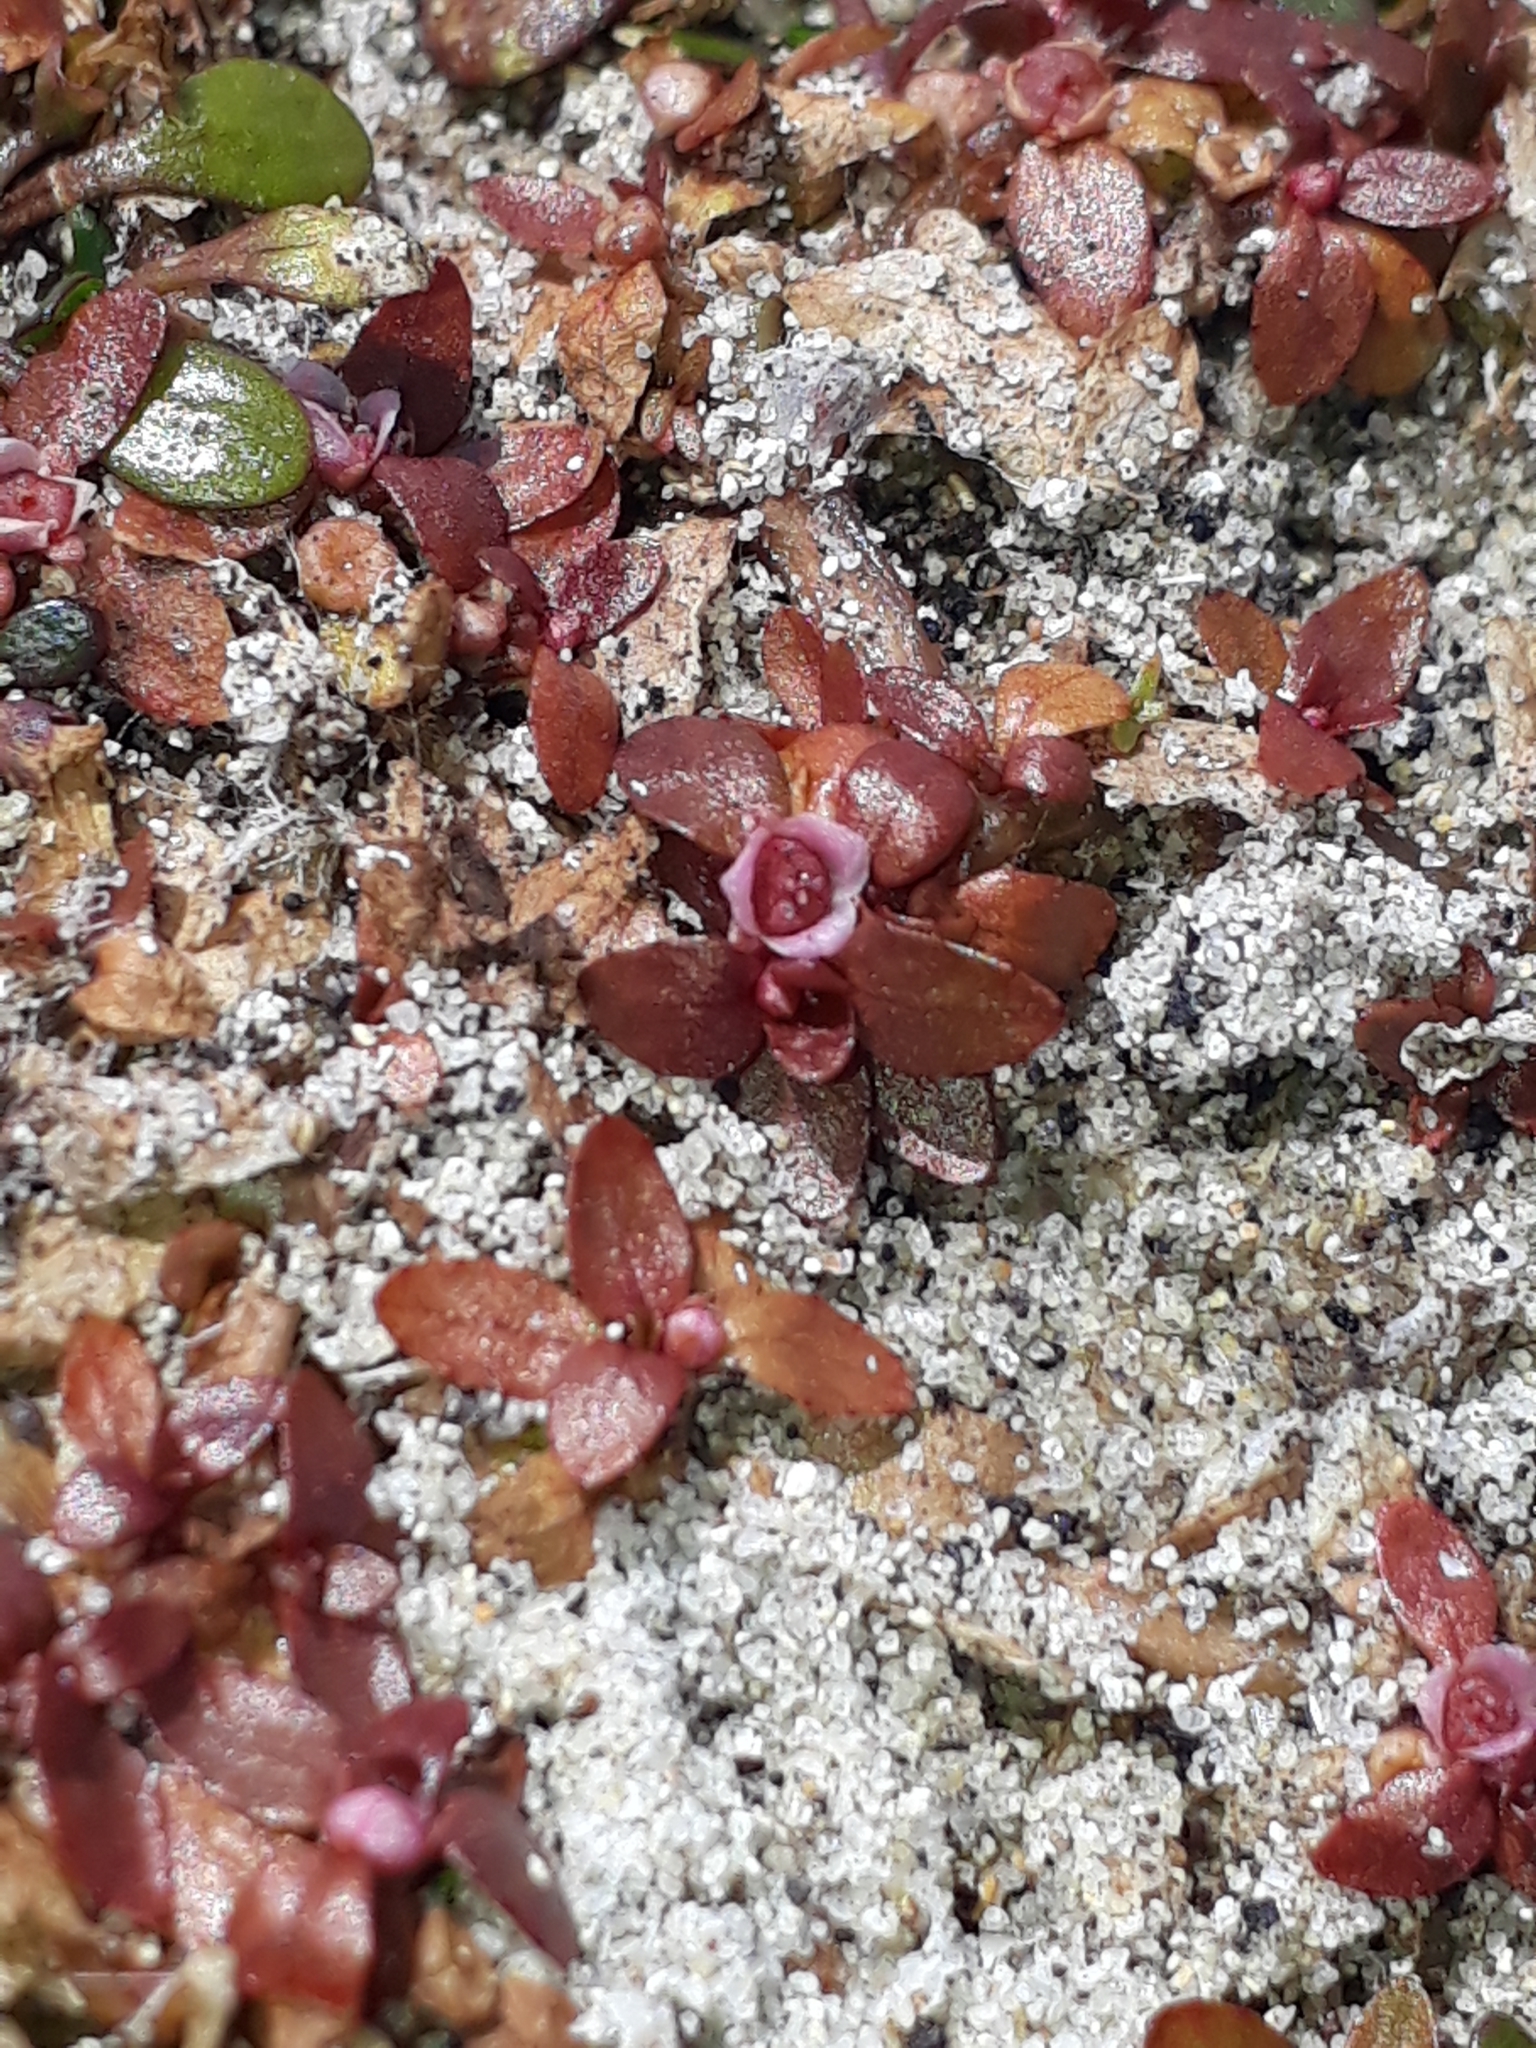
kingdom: Plantae
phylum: Tracheophyta
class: Magnoliopsida
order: Malpighiales
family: Elatinaceae
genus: Elatine
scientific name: Elatine gratioloides
